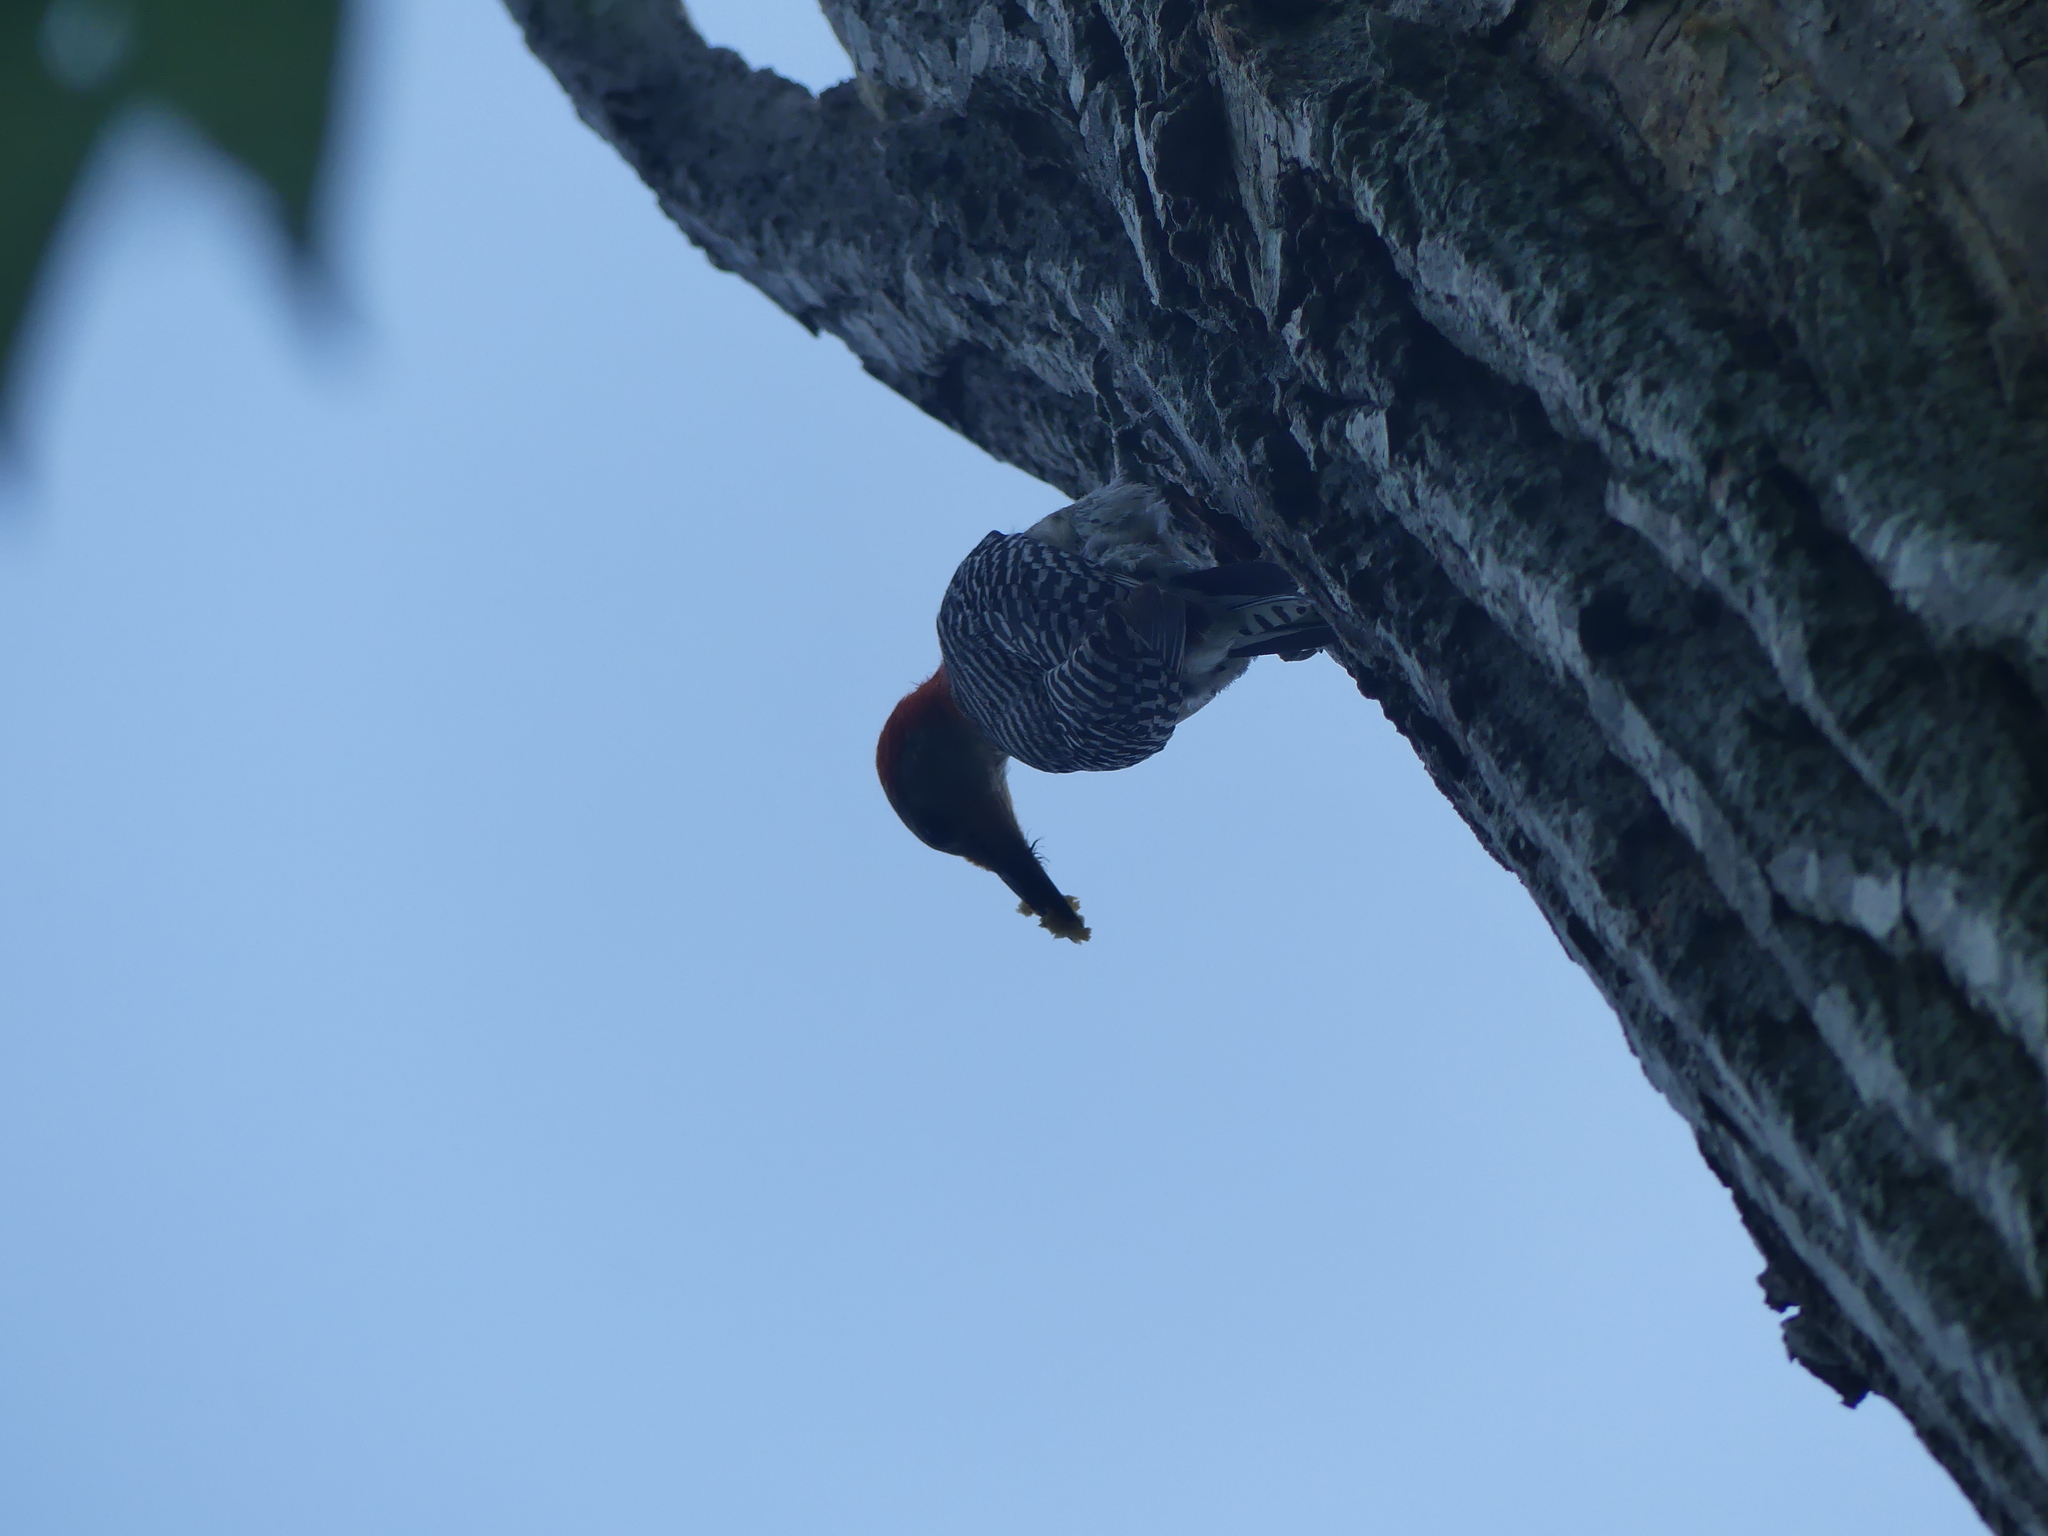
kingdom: Animalia
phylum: Chordata
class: Aves
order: Piciformes
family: Picidae
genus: Melanerpes
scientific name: Melanerpes carolinus
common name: Red-bellied woodpecker
